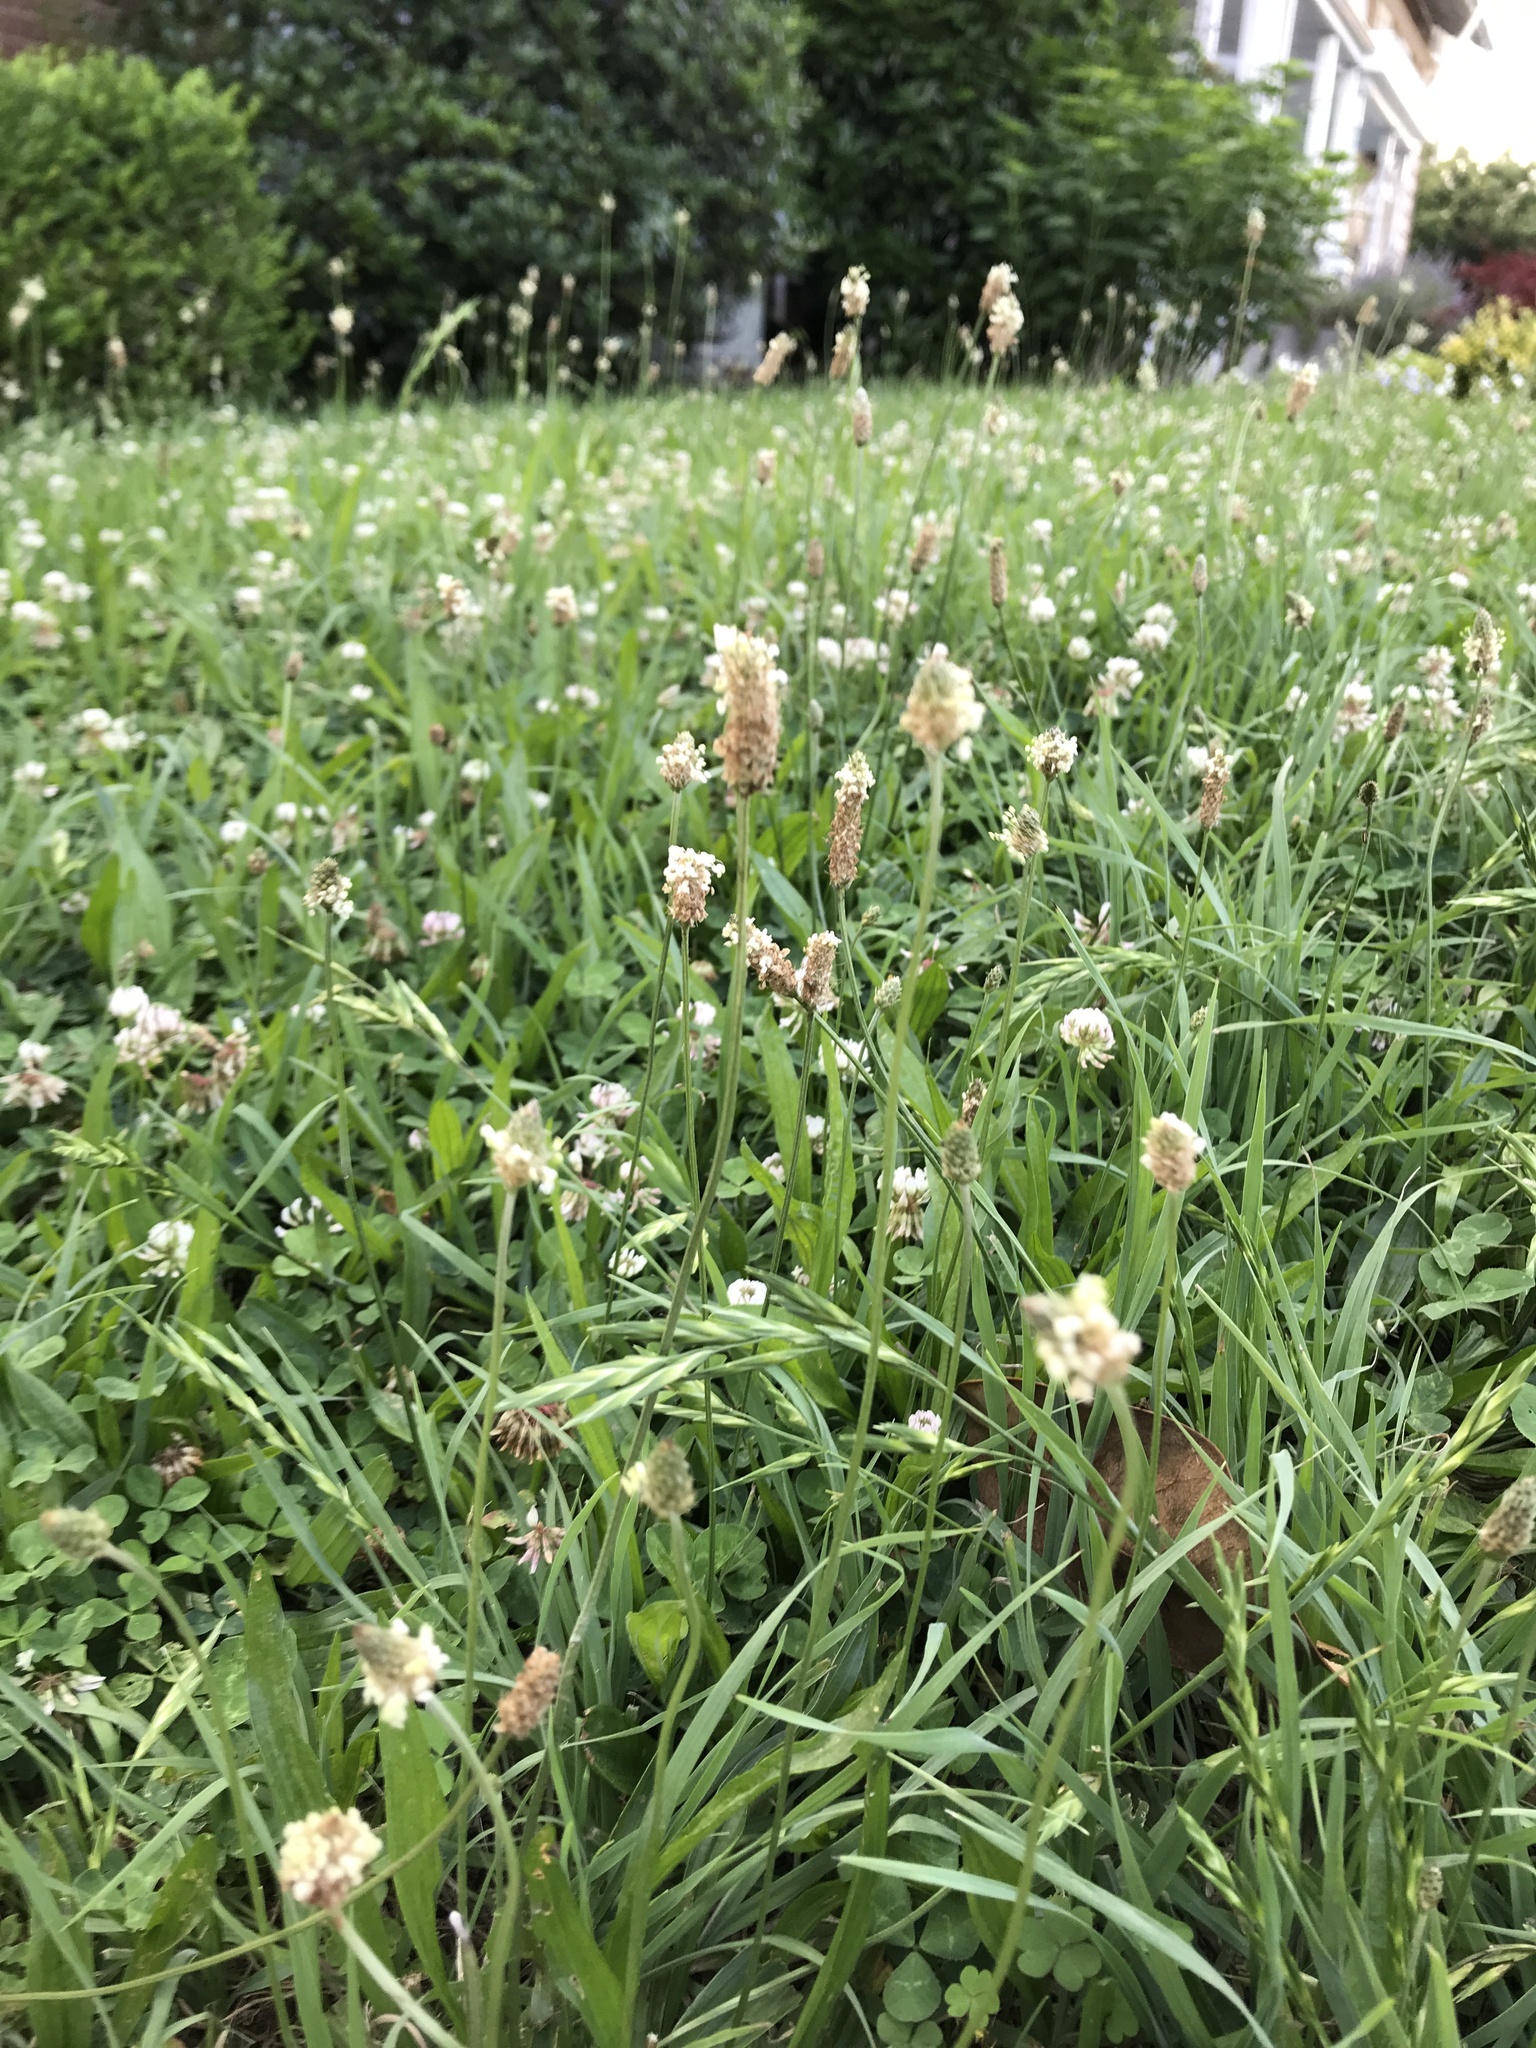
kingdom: Plantae
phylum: Tracheophyta
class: Magnoliopsida
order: Lamiales
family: Plantaginaceae
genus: Plantago
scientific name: Plantago lanceolata
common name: Ribwort plantain
